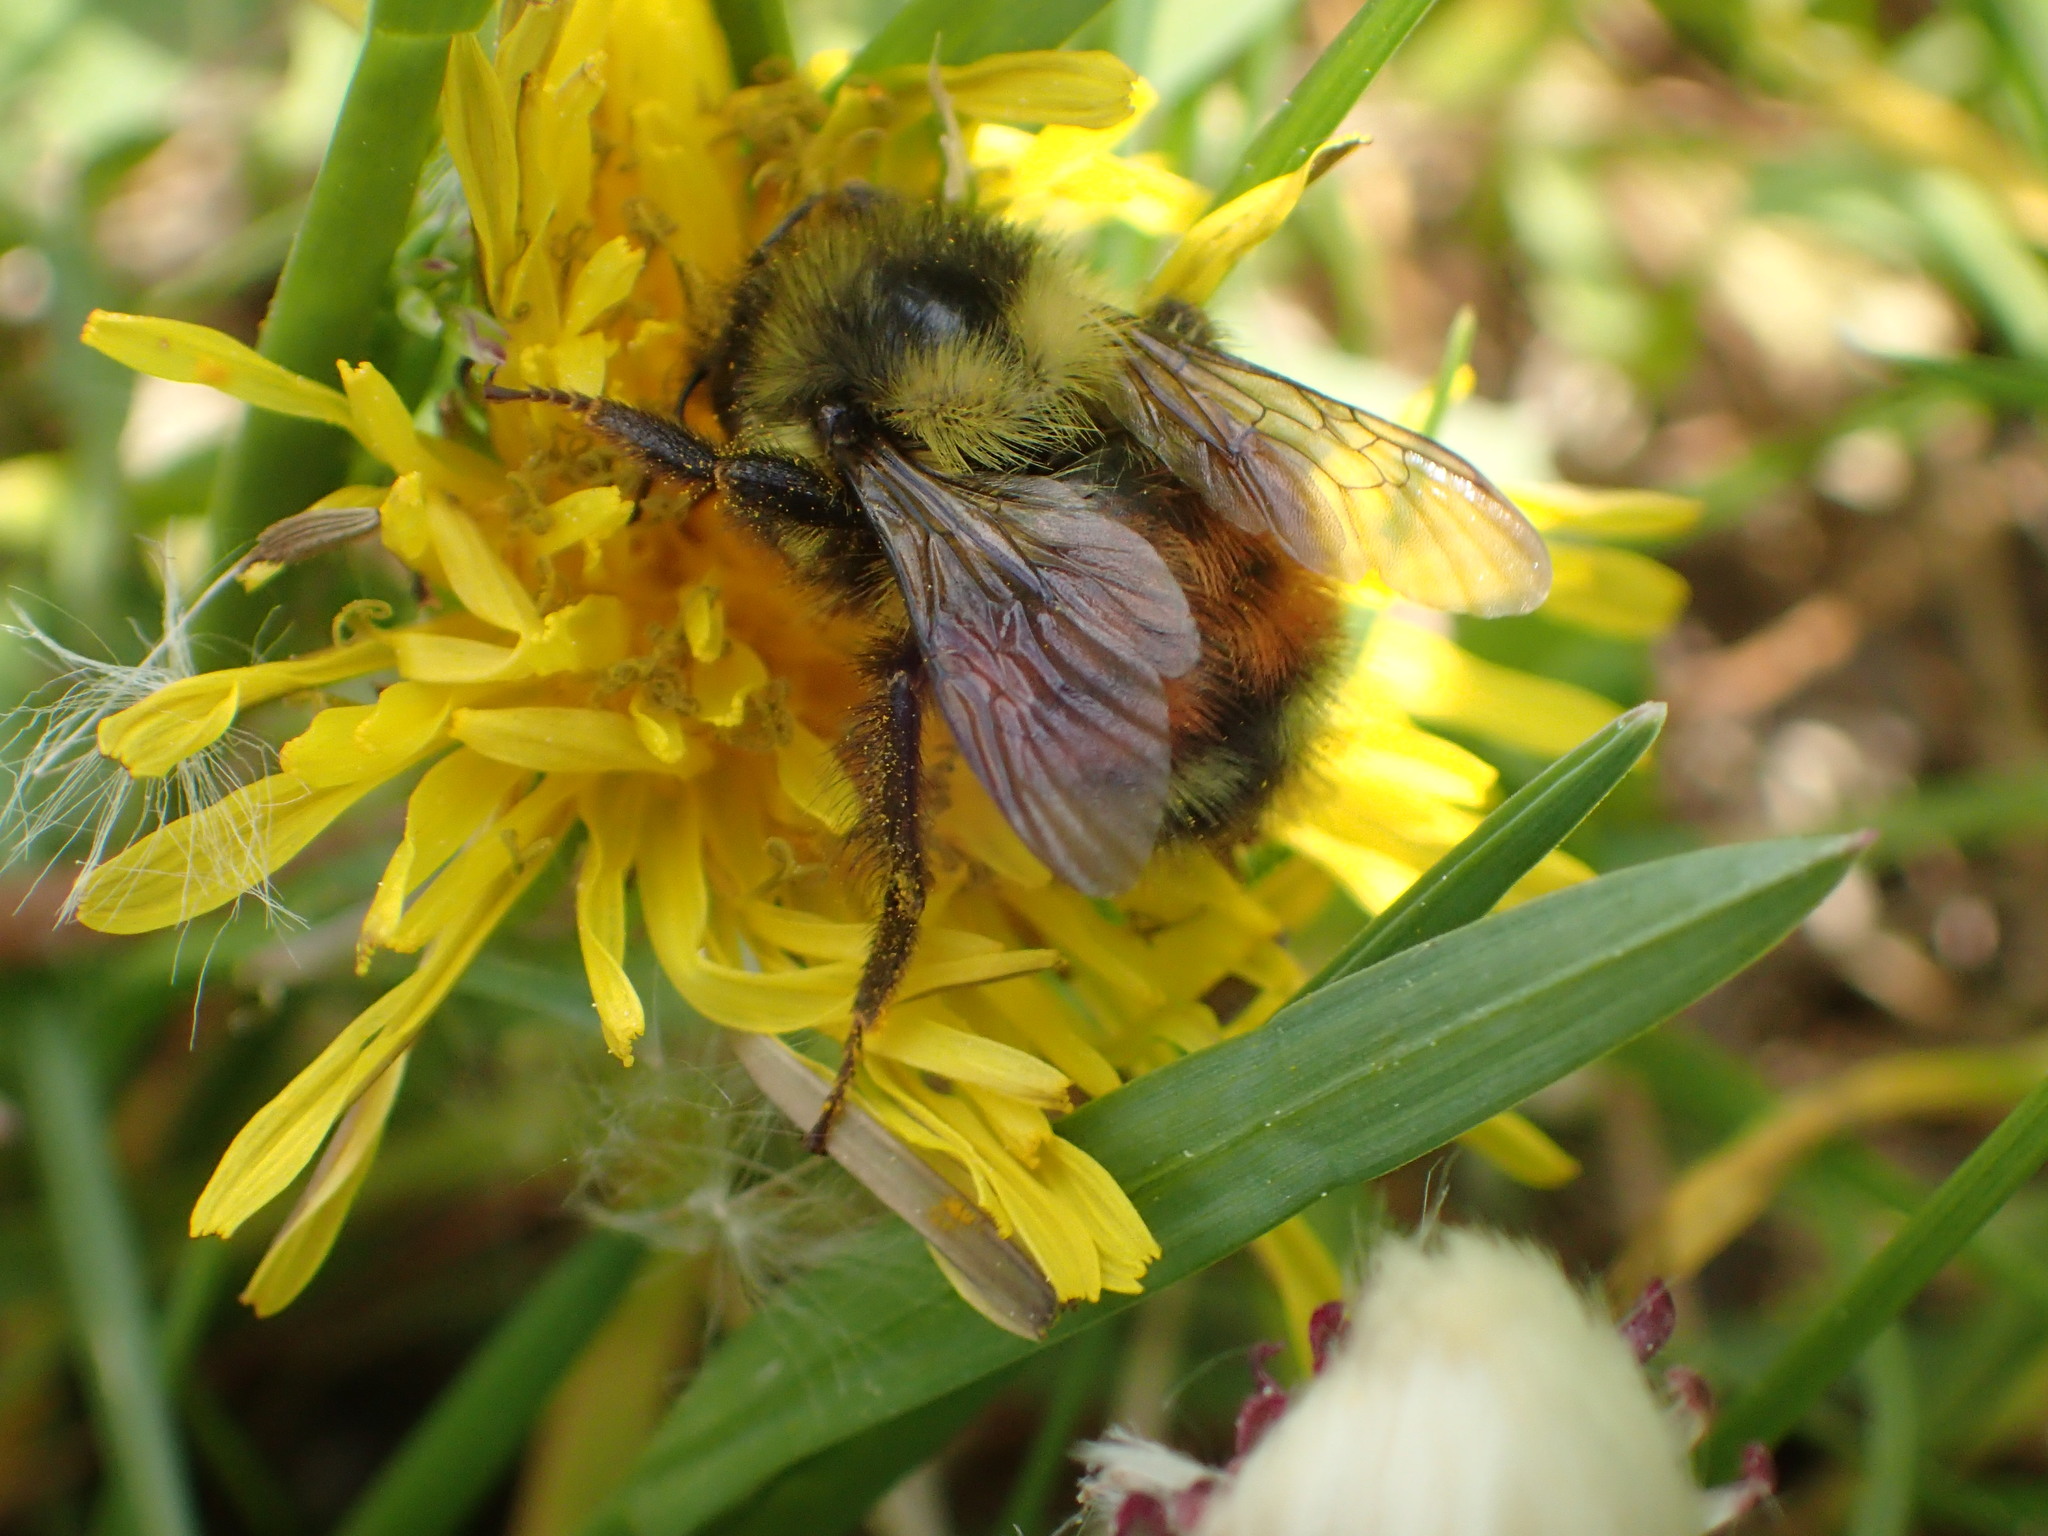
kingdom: Animalia
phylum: Arthropoda
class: Insecta
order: Hymenoptera
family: Apidae
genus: Bombus
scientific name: Bombus melanopygus
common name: Black tail bumble bee
